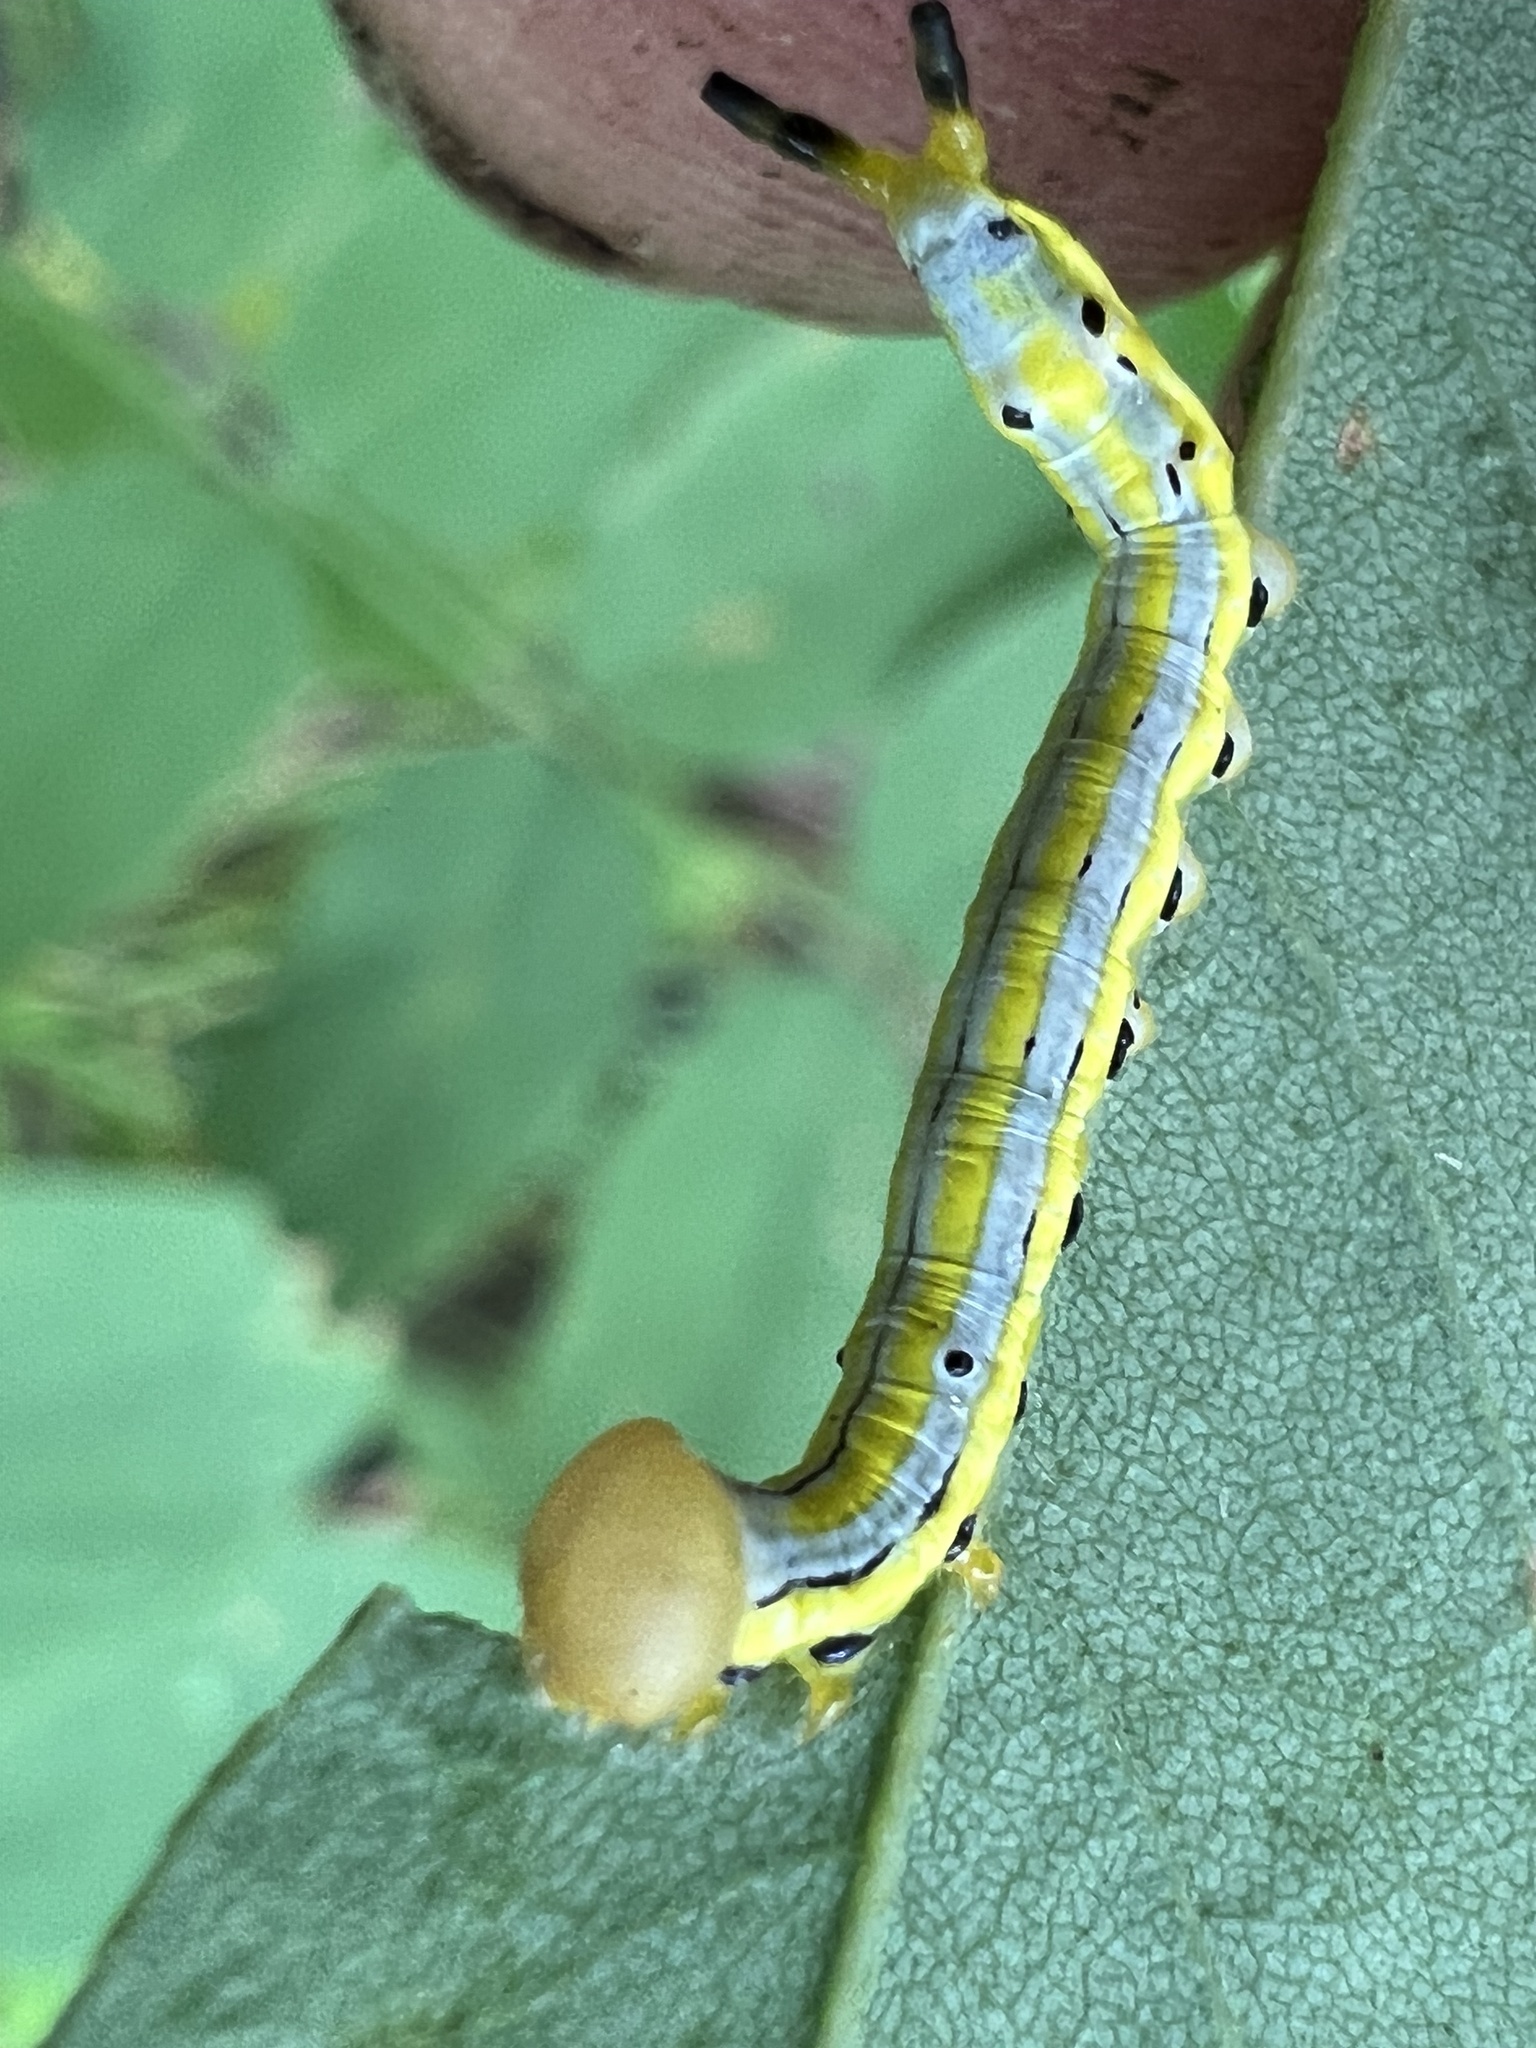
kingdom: Animalia
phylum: Arthropoda
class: Insecta
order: Lepidoptera
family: Notodontidae
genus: Dasylophia
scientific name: Dasylophia anguina
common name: Black-spotted prominent
